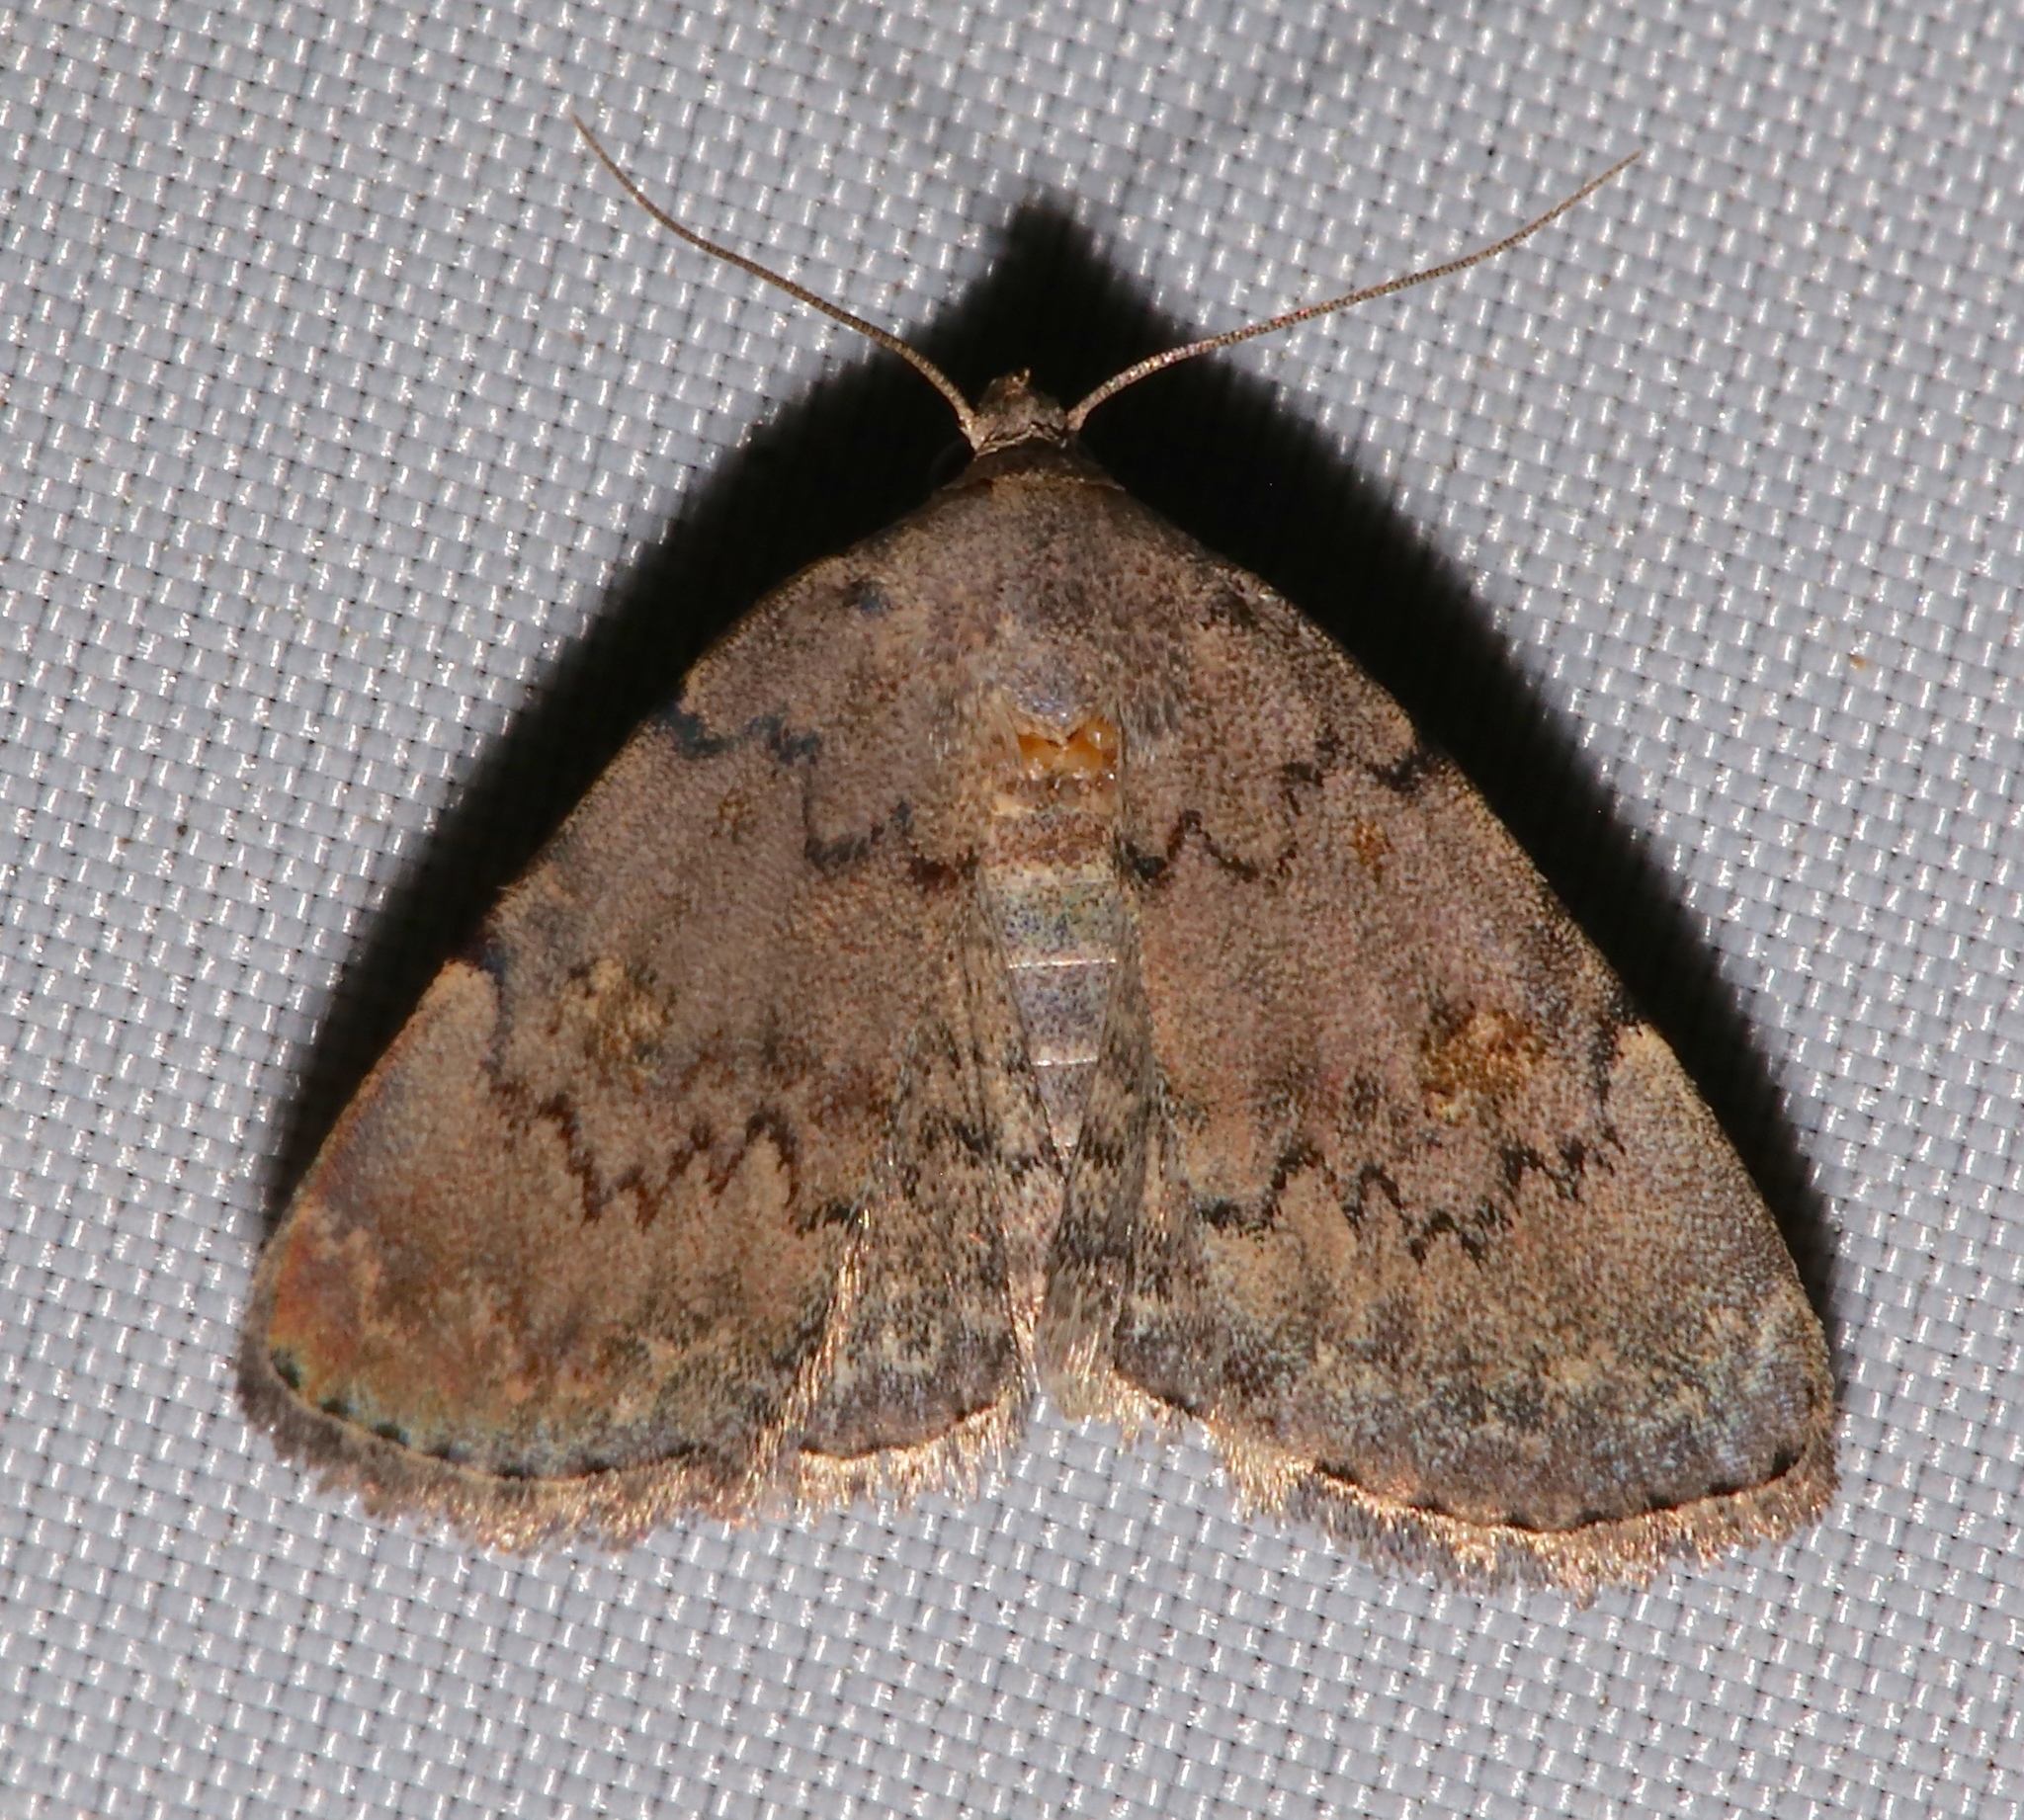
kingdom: Animalia
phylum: Arthropoda
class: Insecta
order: Lepidoptera
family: Erebidae
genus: Idia
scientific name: Idia aemula
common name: Common idia moth
